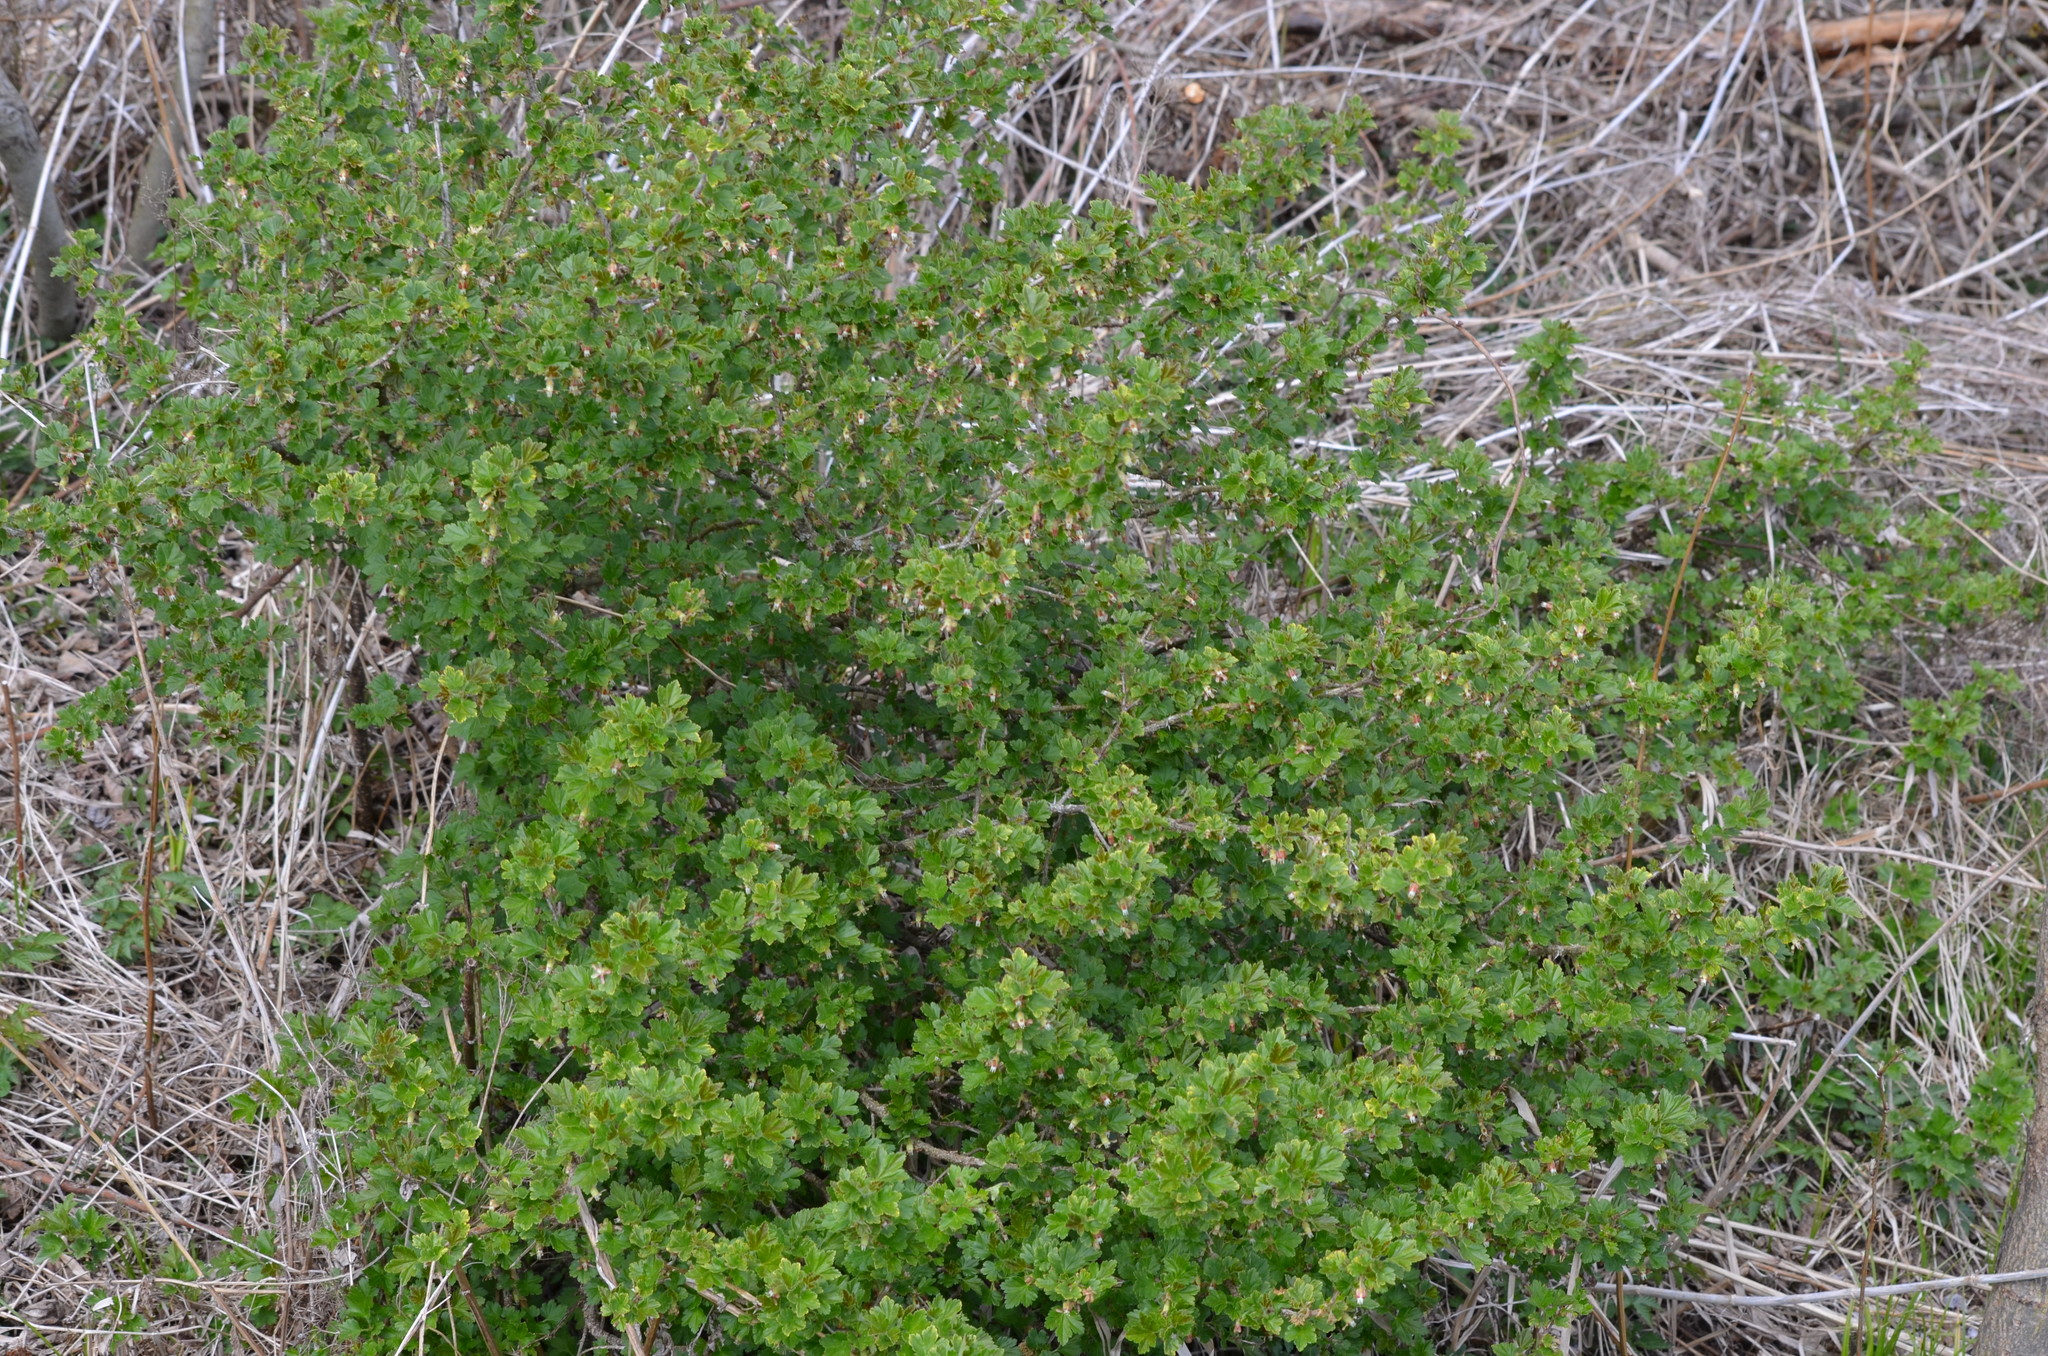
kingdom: Plantae
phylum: Tracheophyta
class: Magnoliopsida
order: Saxifragales
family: Grossulariaceae
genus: Ribes
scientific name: Ribes uva-crispa
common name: Gooseberry
